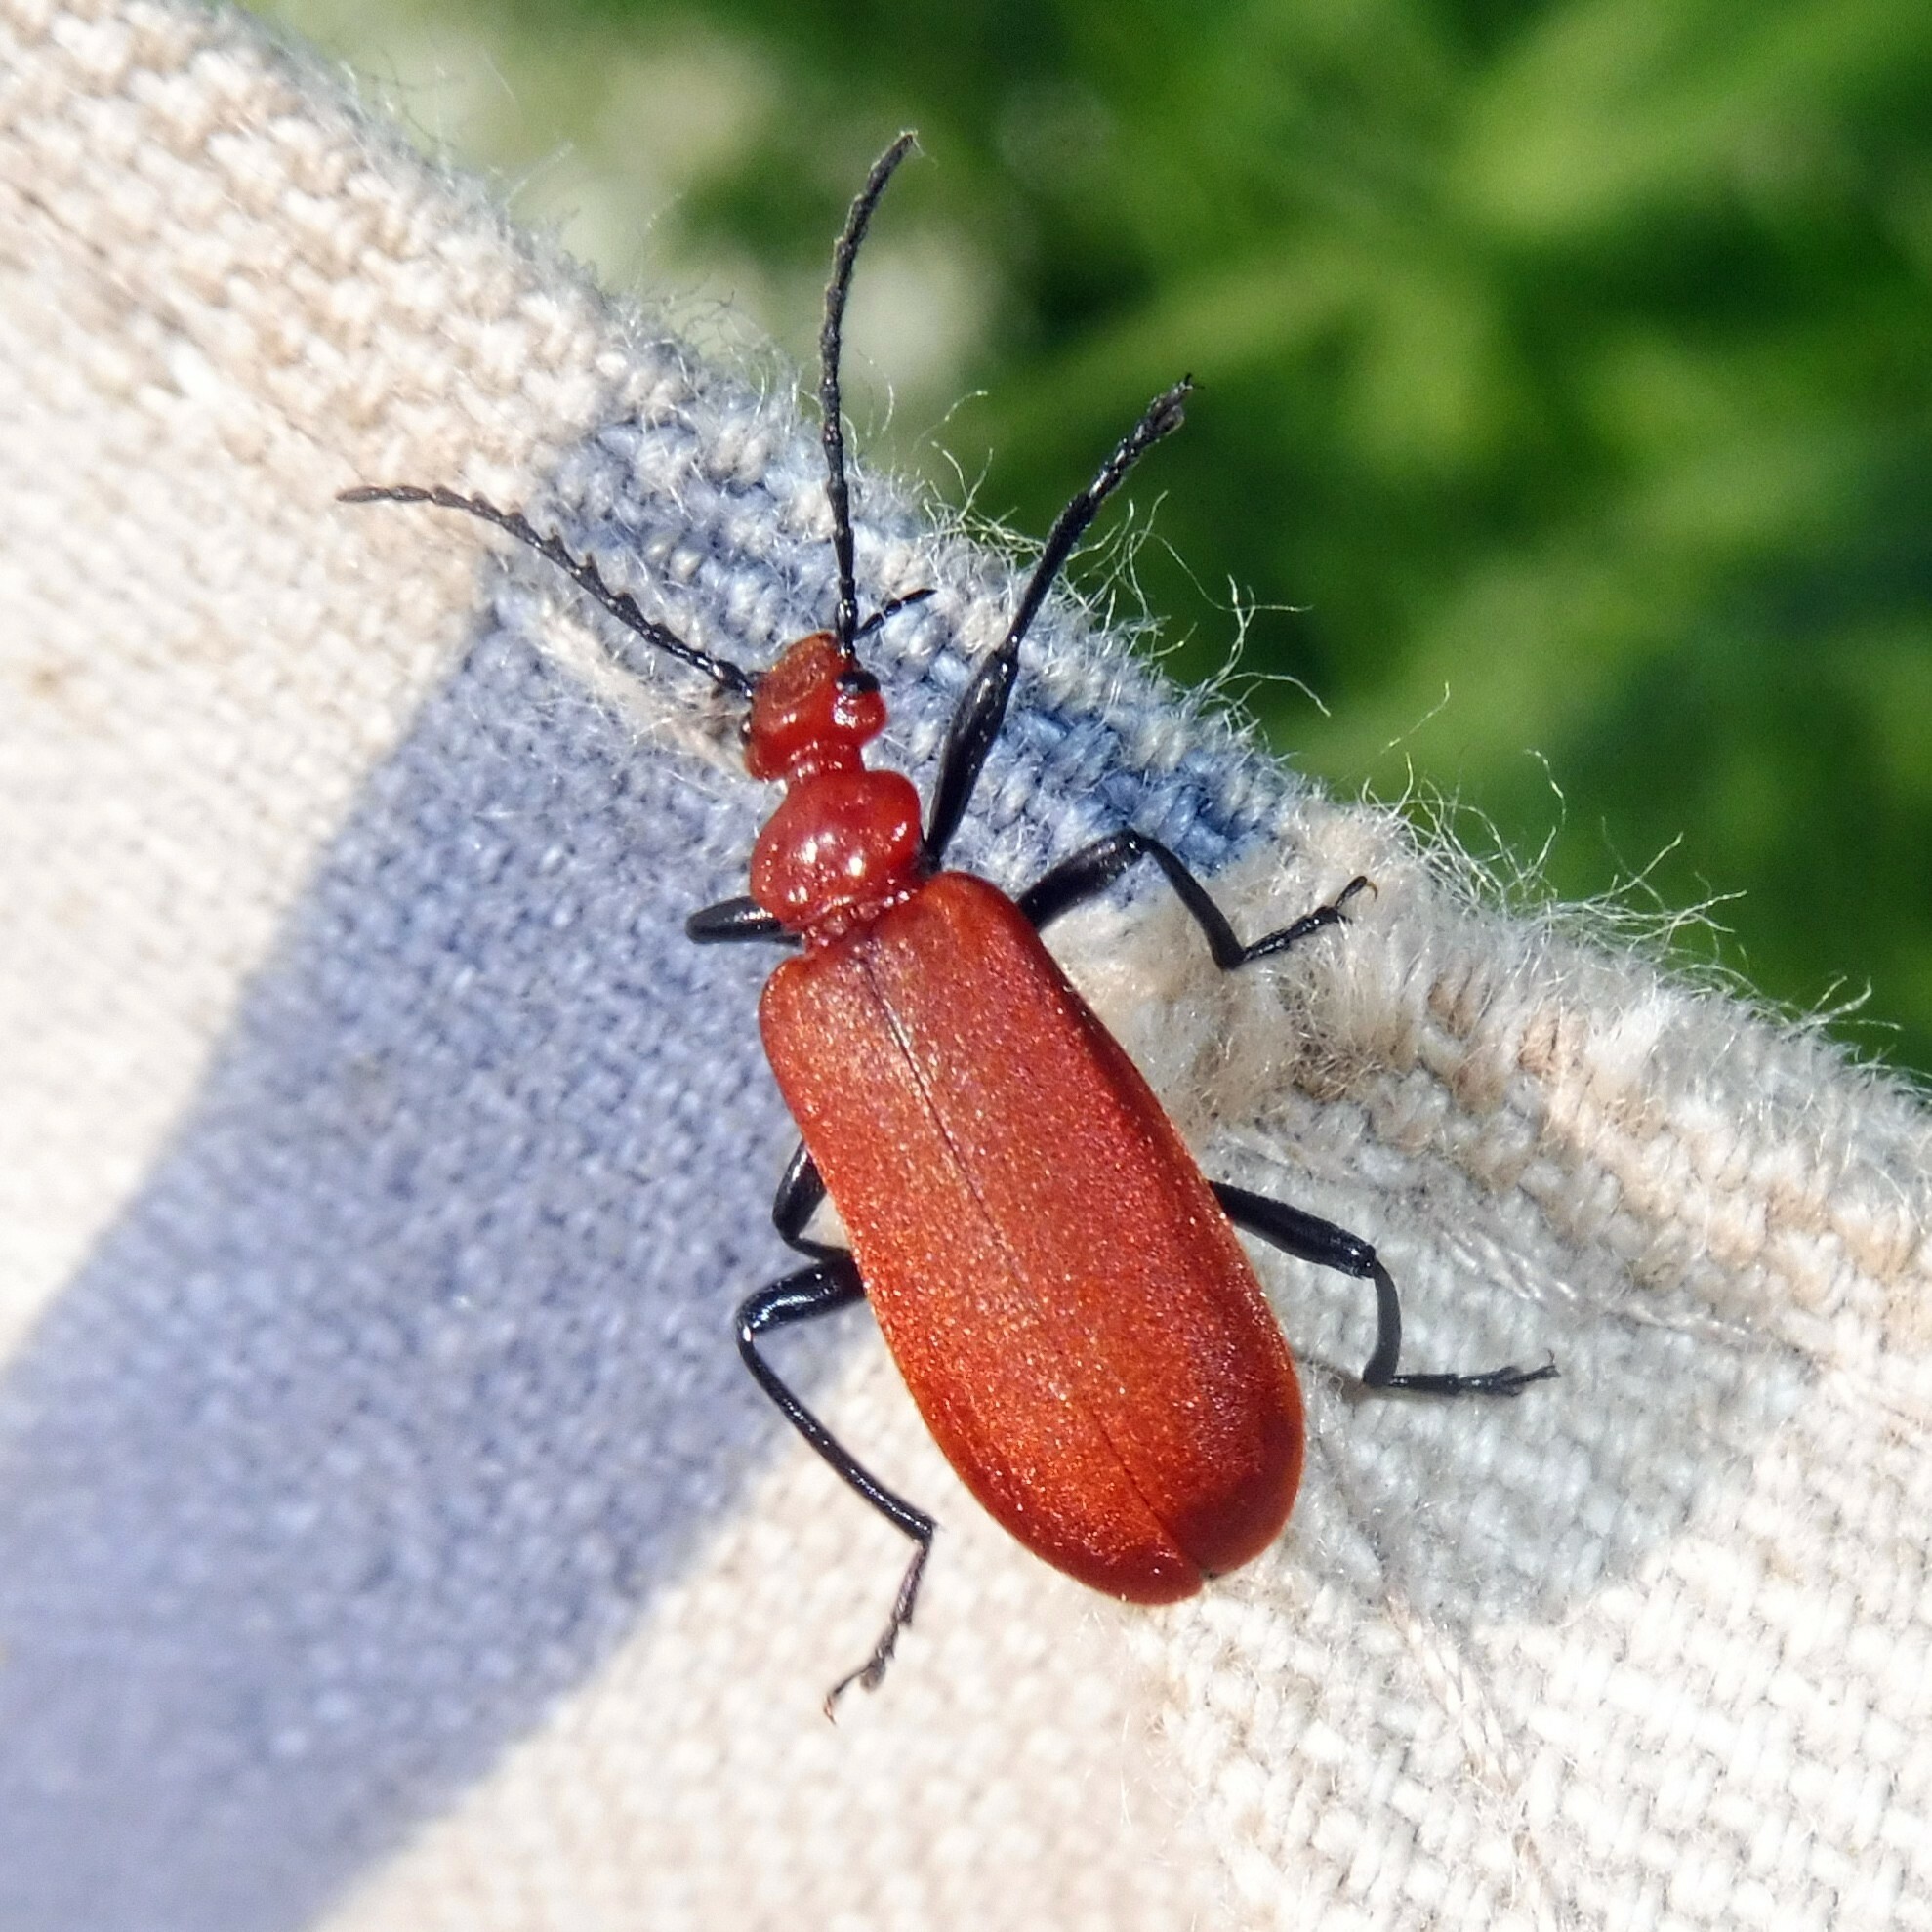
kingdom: Animalia
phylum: Arthropoda
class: Insecta
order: Coleoptera
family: Pyrochroidae
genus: Pyrochroa
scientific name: Pyrochroa serraticornis
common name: Red-headed cardinal beetle
